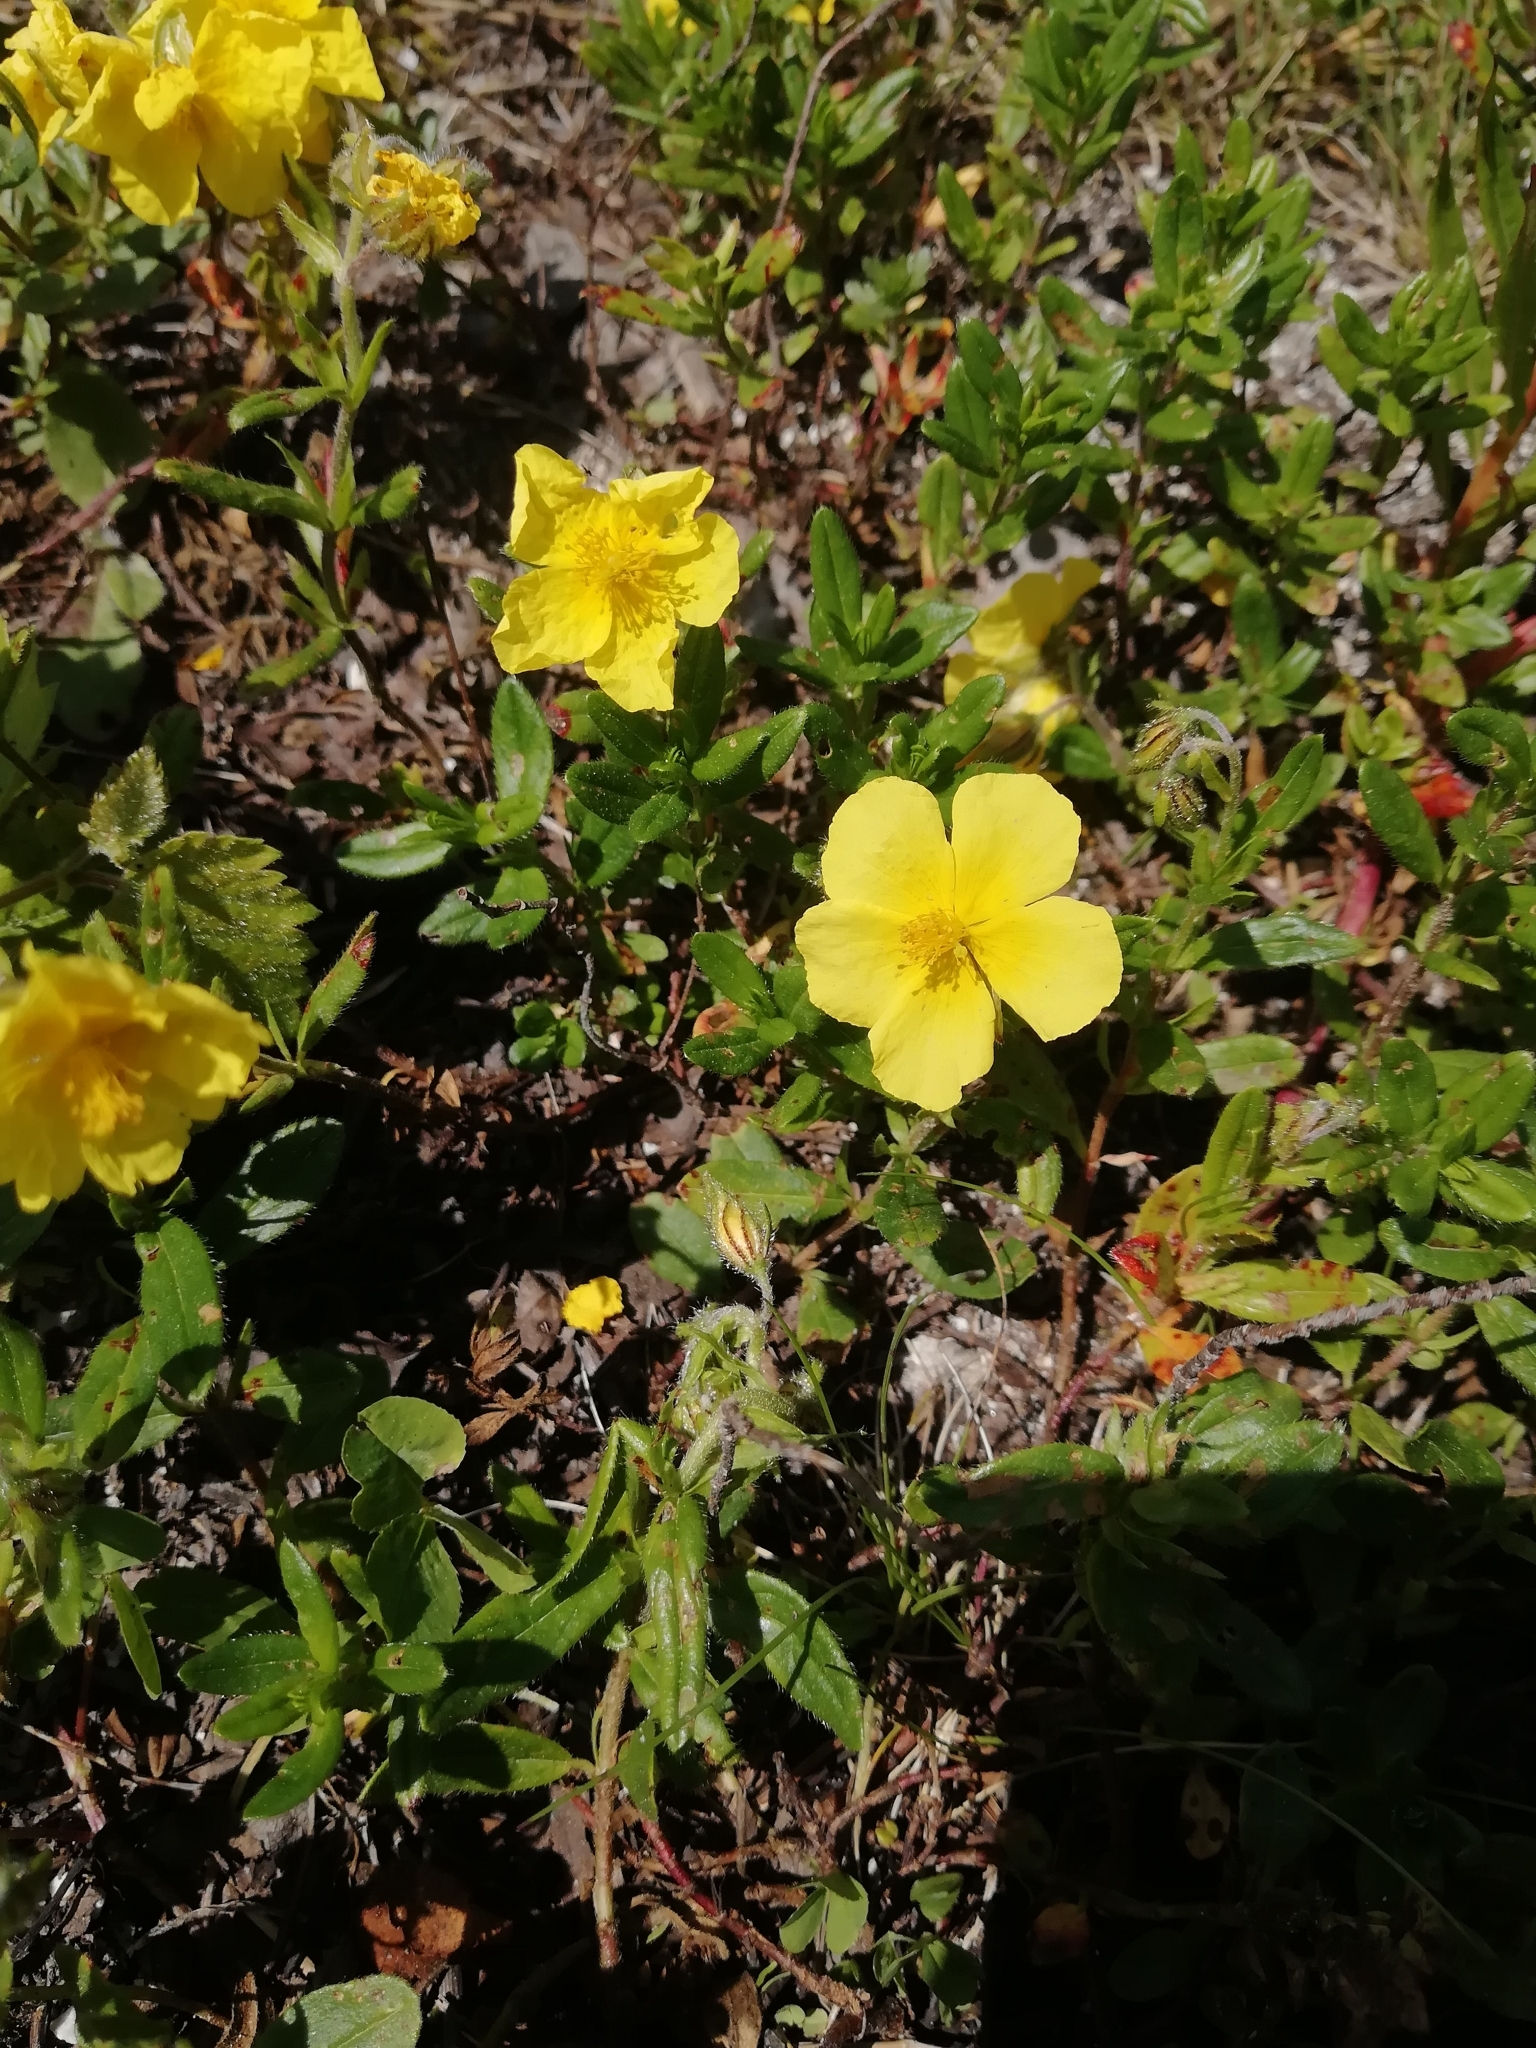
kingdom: Plantae
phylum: Tracheophyta
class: Magnoliopsida
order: Malvales
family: Cistaceae
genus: Helianthemum
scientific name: Helianthemum nummularium
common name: Common rock-rose
